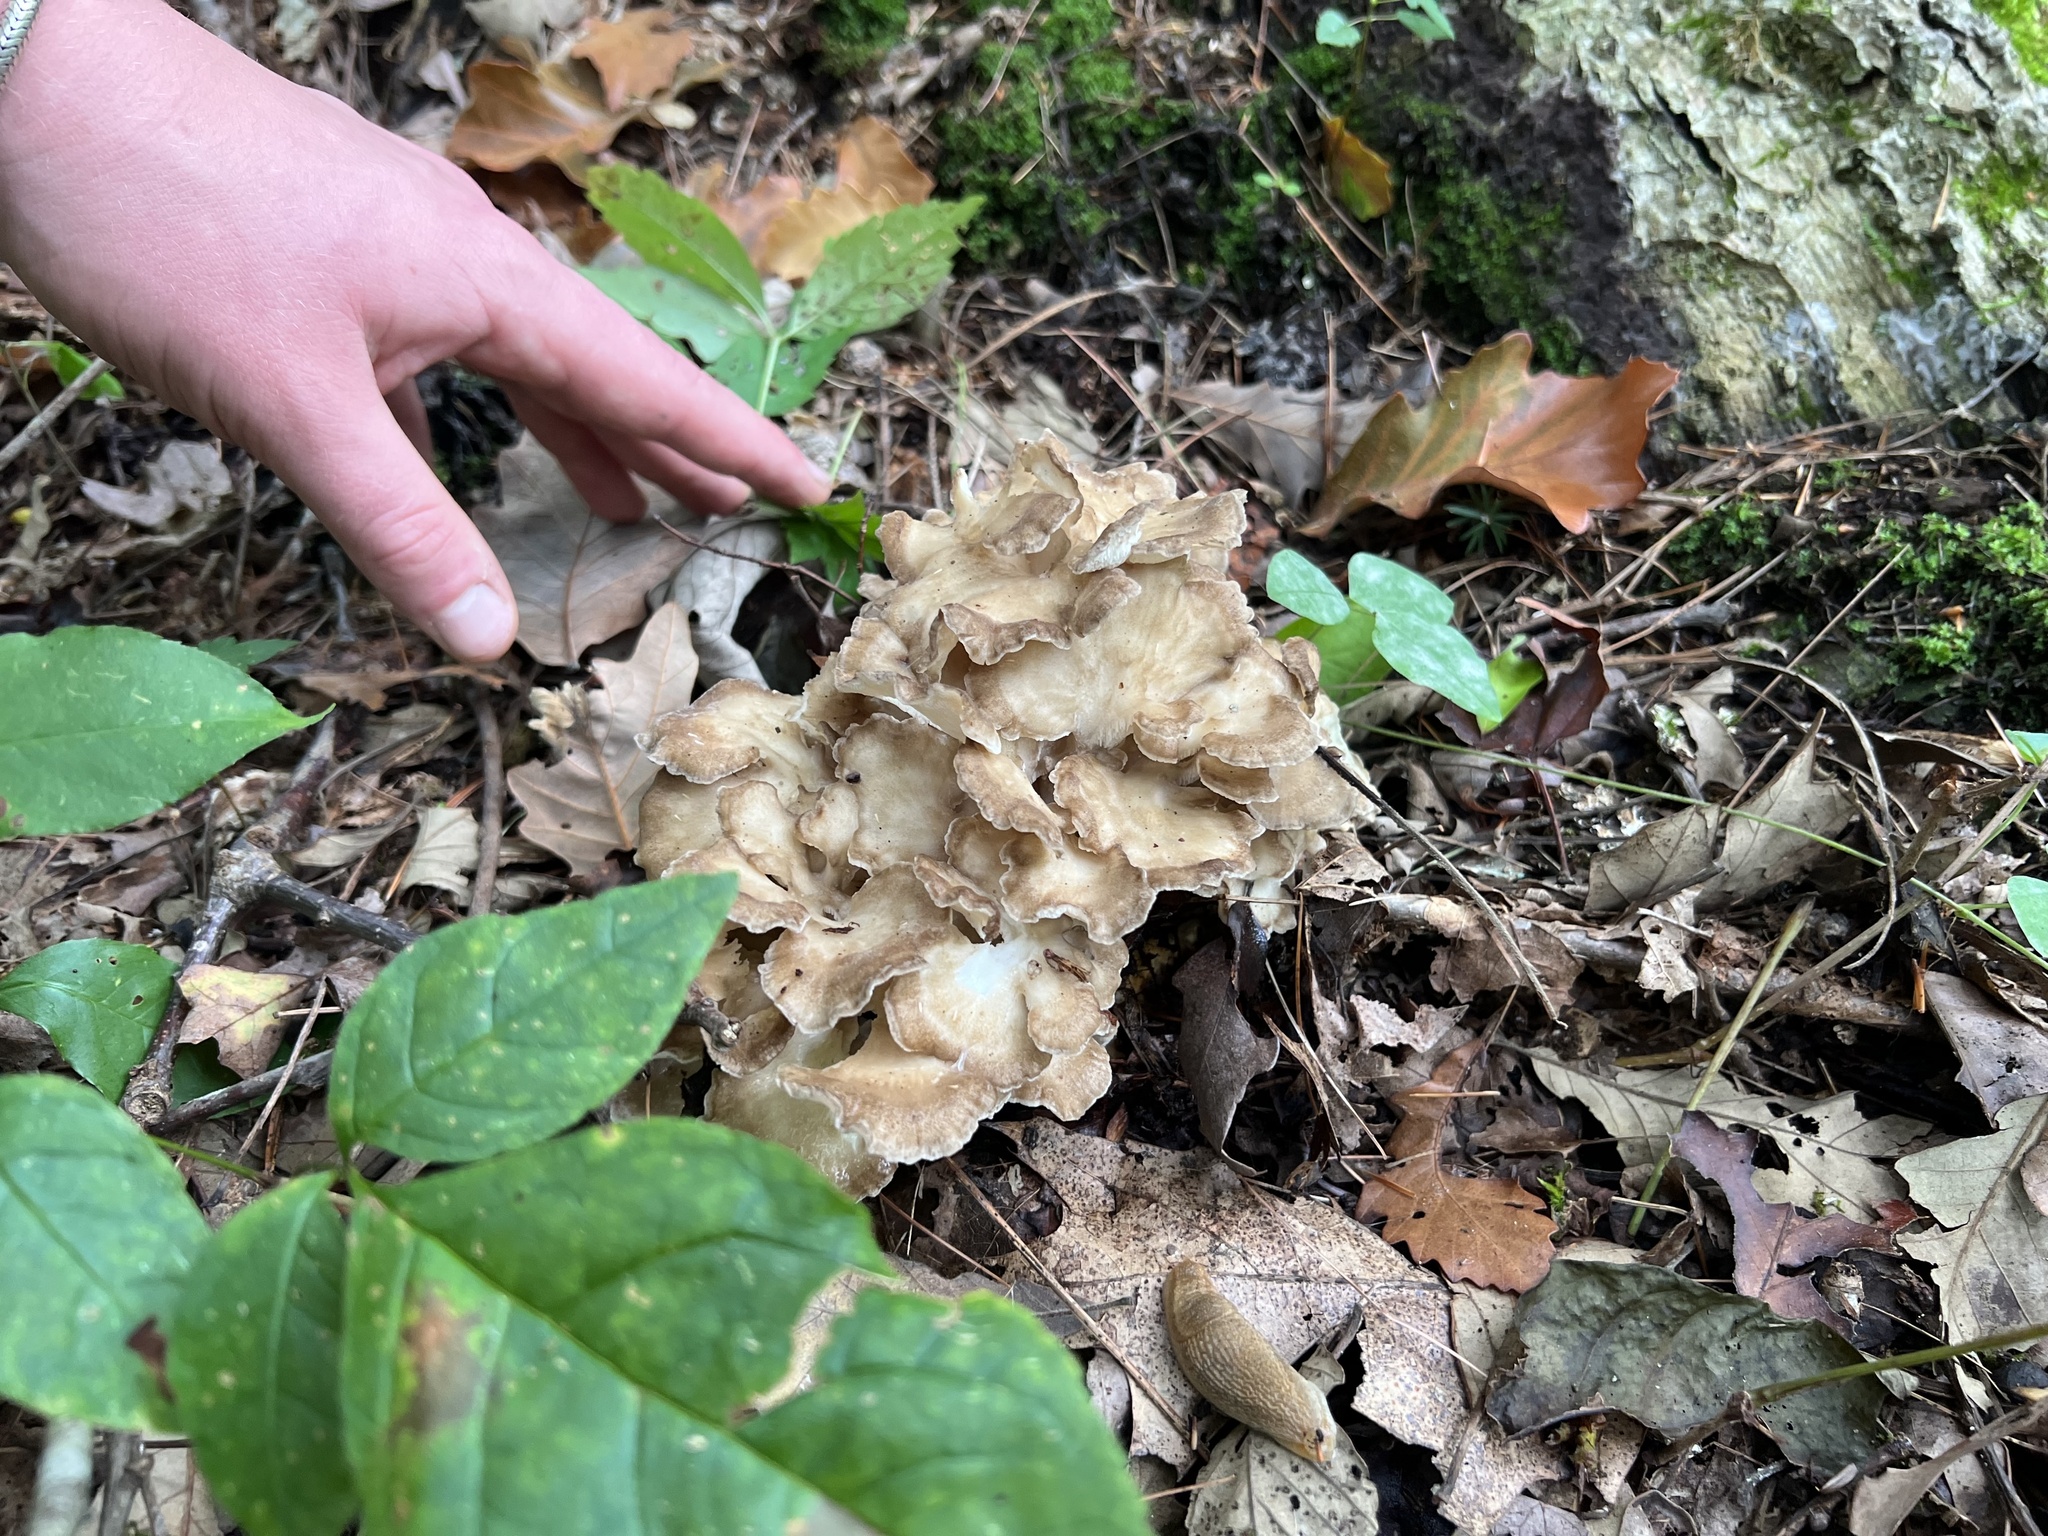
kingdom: Fungi
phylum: Basidiomycota
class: Agaricomycetes
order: Polyporales
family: Grifolaceae
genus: Grifola
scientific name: Grifola frondosa
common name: Hen of the woods
